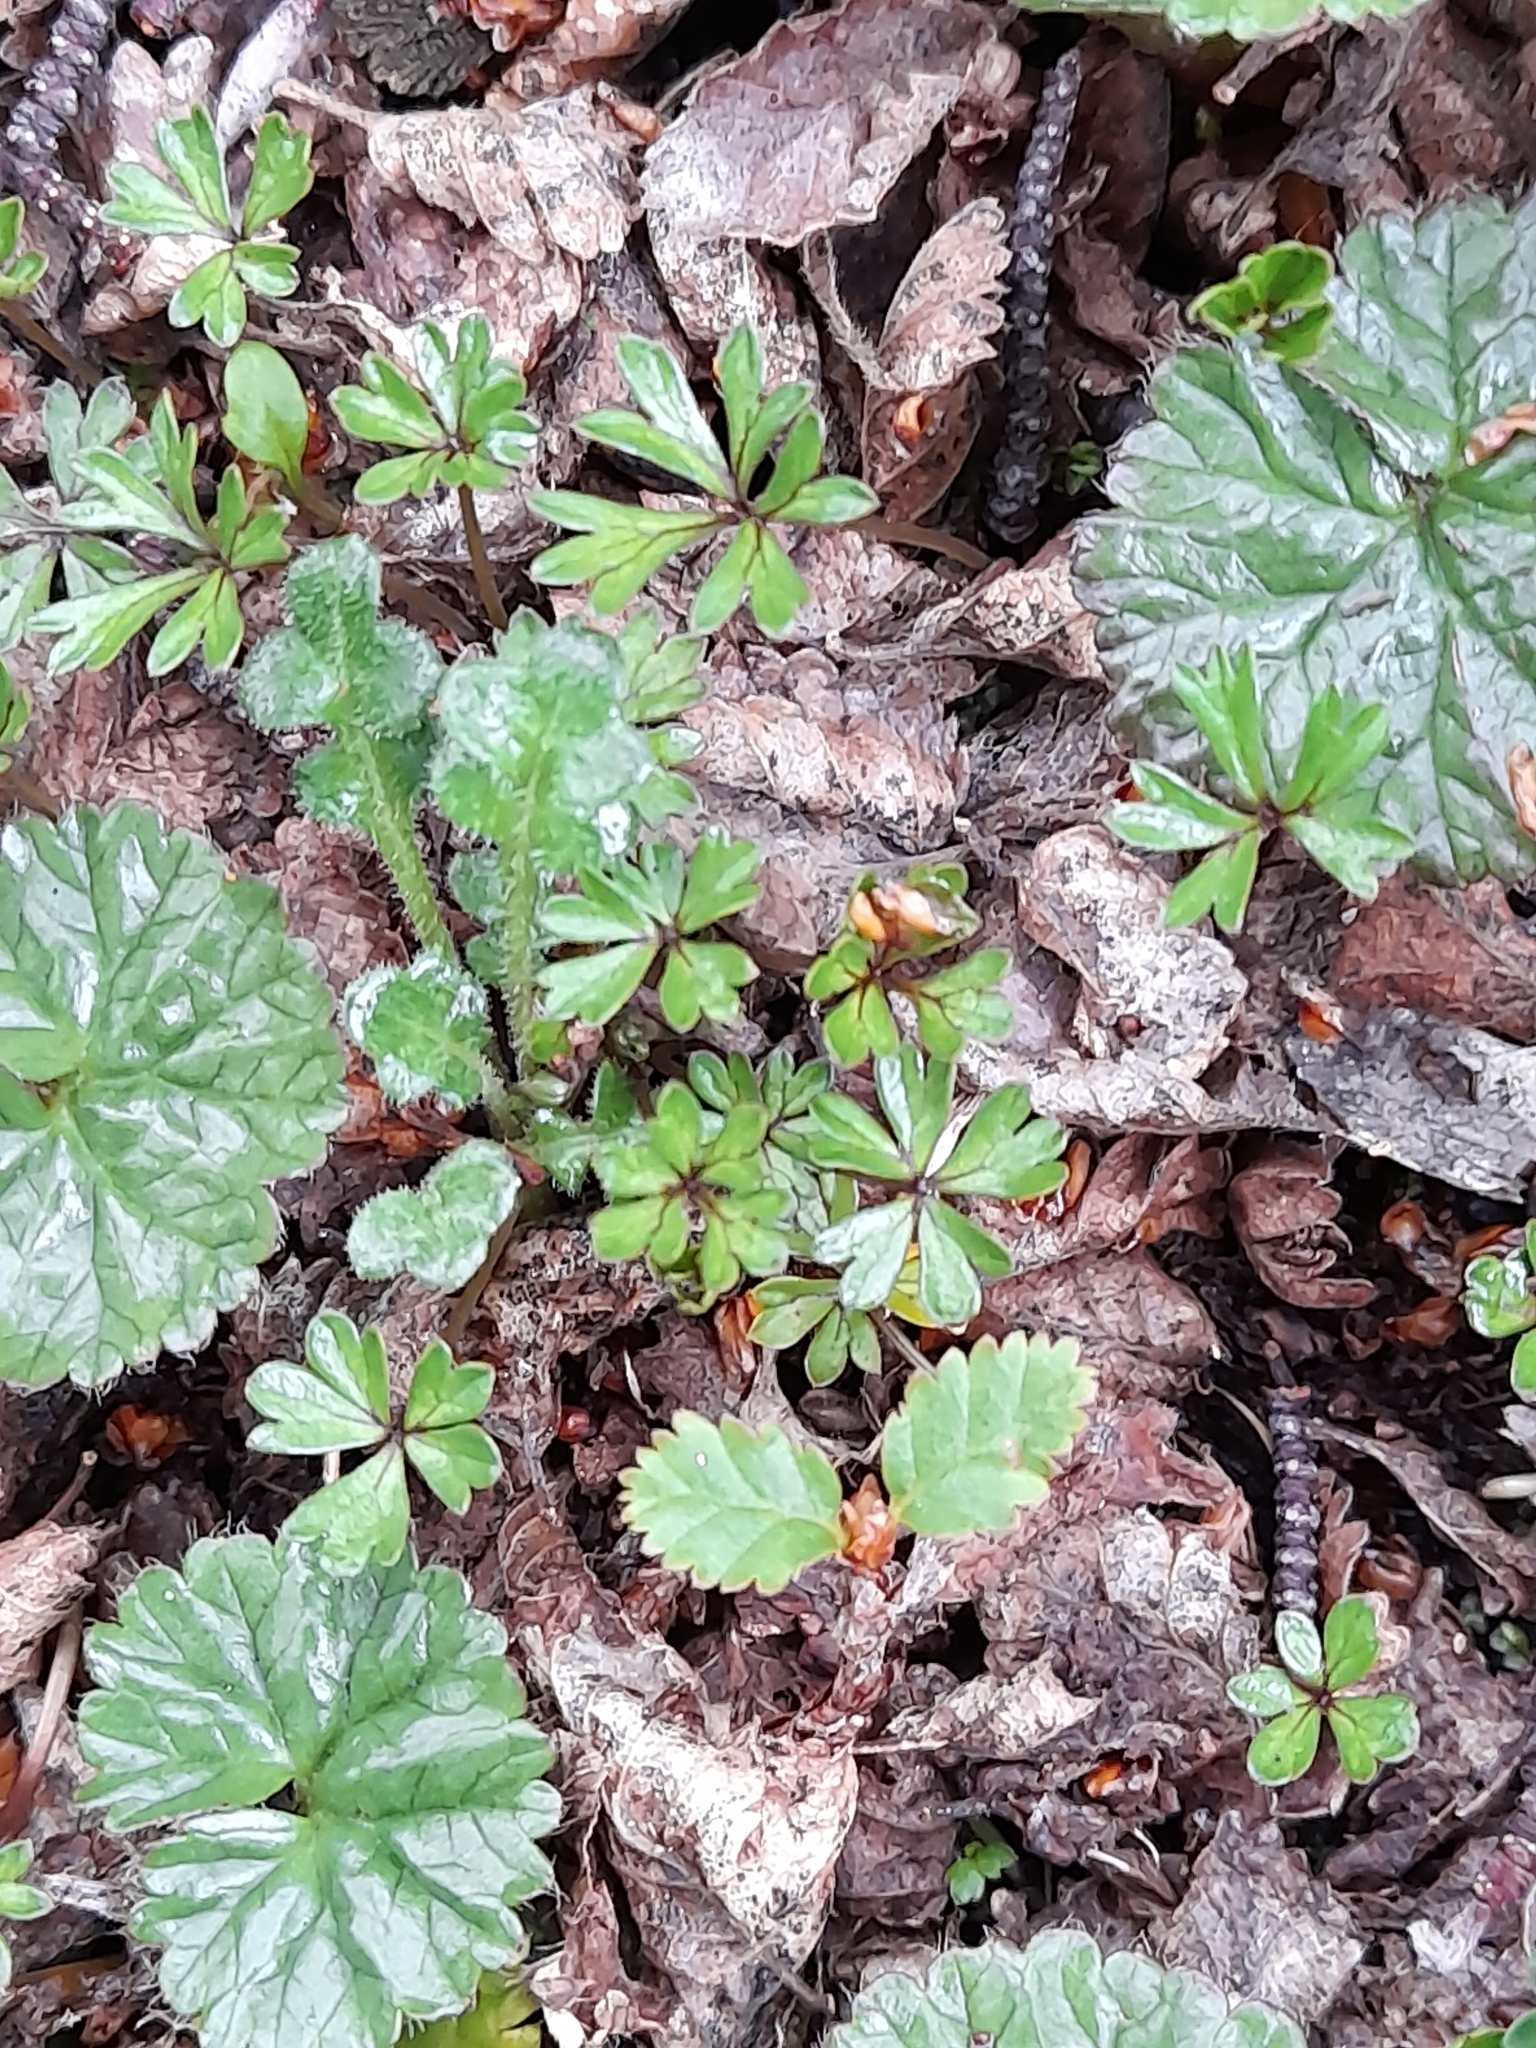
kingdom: Plantae
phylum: Tracheophyta
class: Magnoliopsida
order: Ranunculales
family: Ranunculaceae
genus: Ranunculus
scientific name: Ranunculus fuegianus
